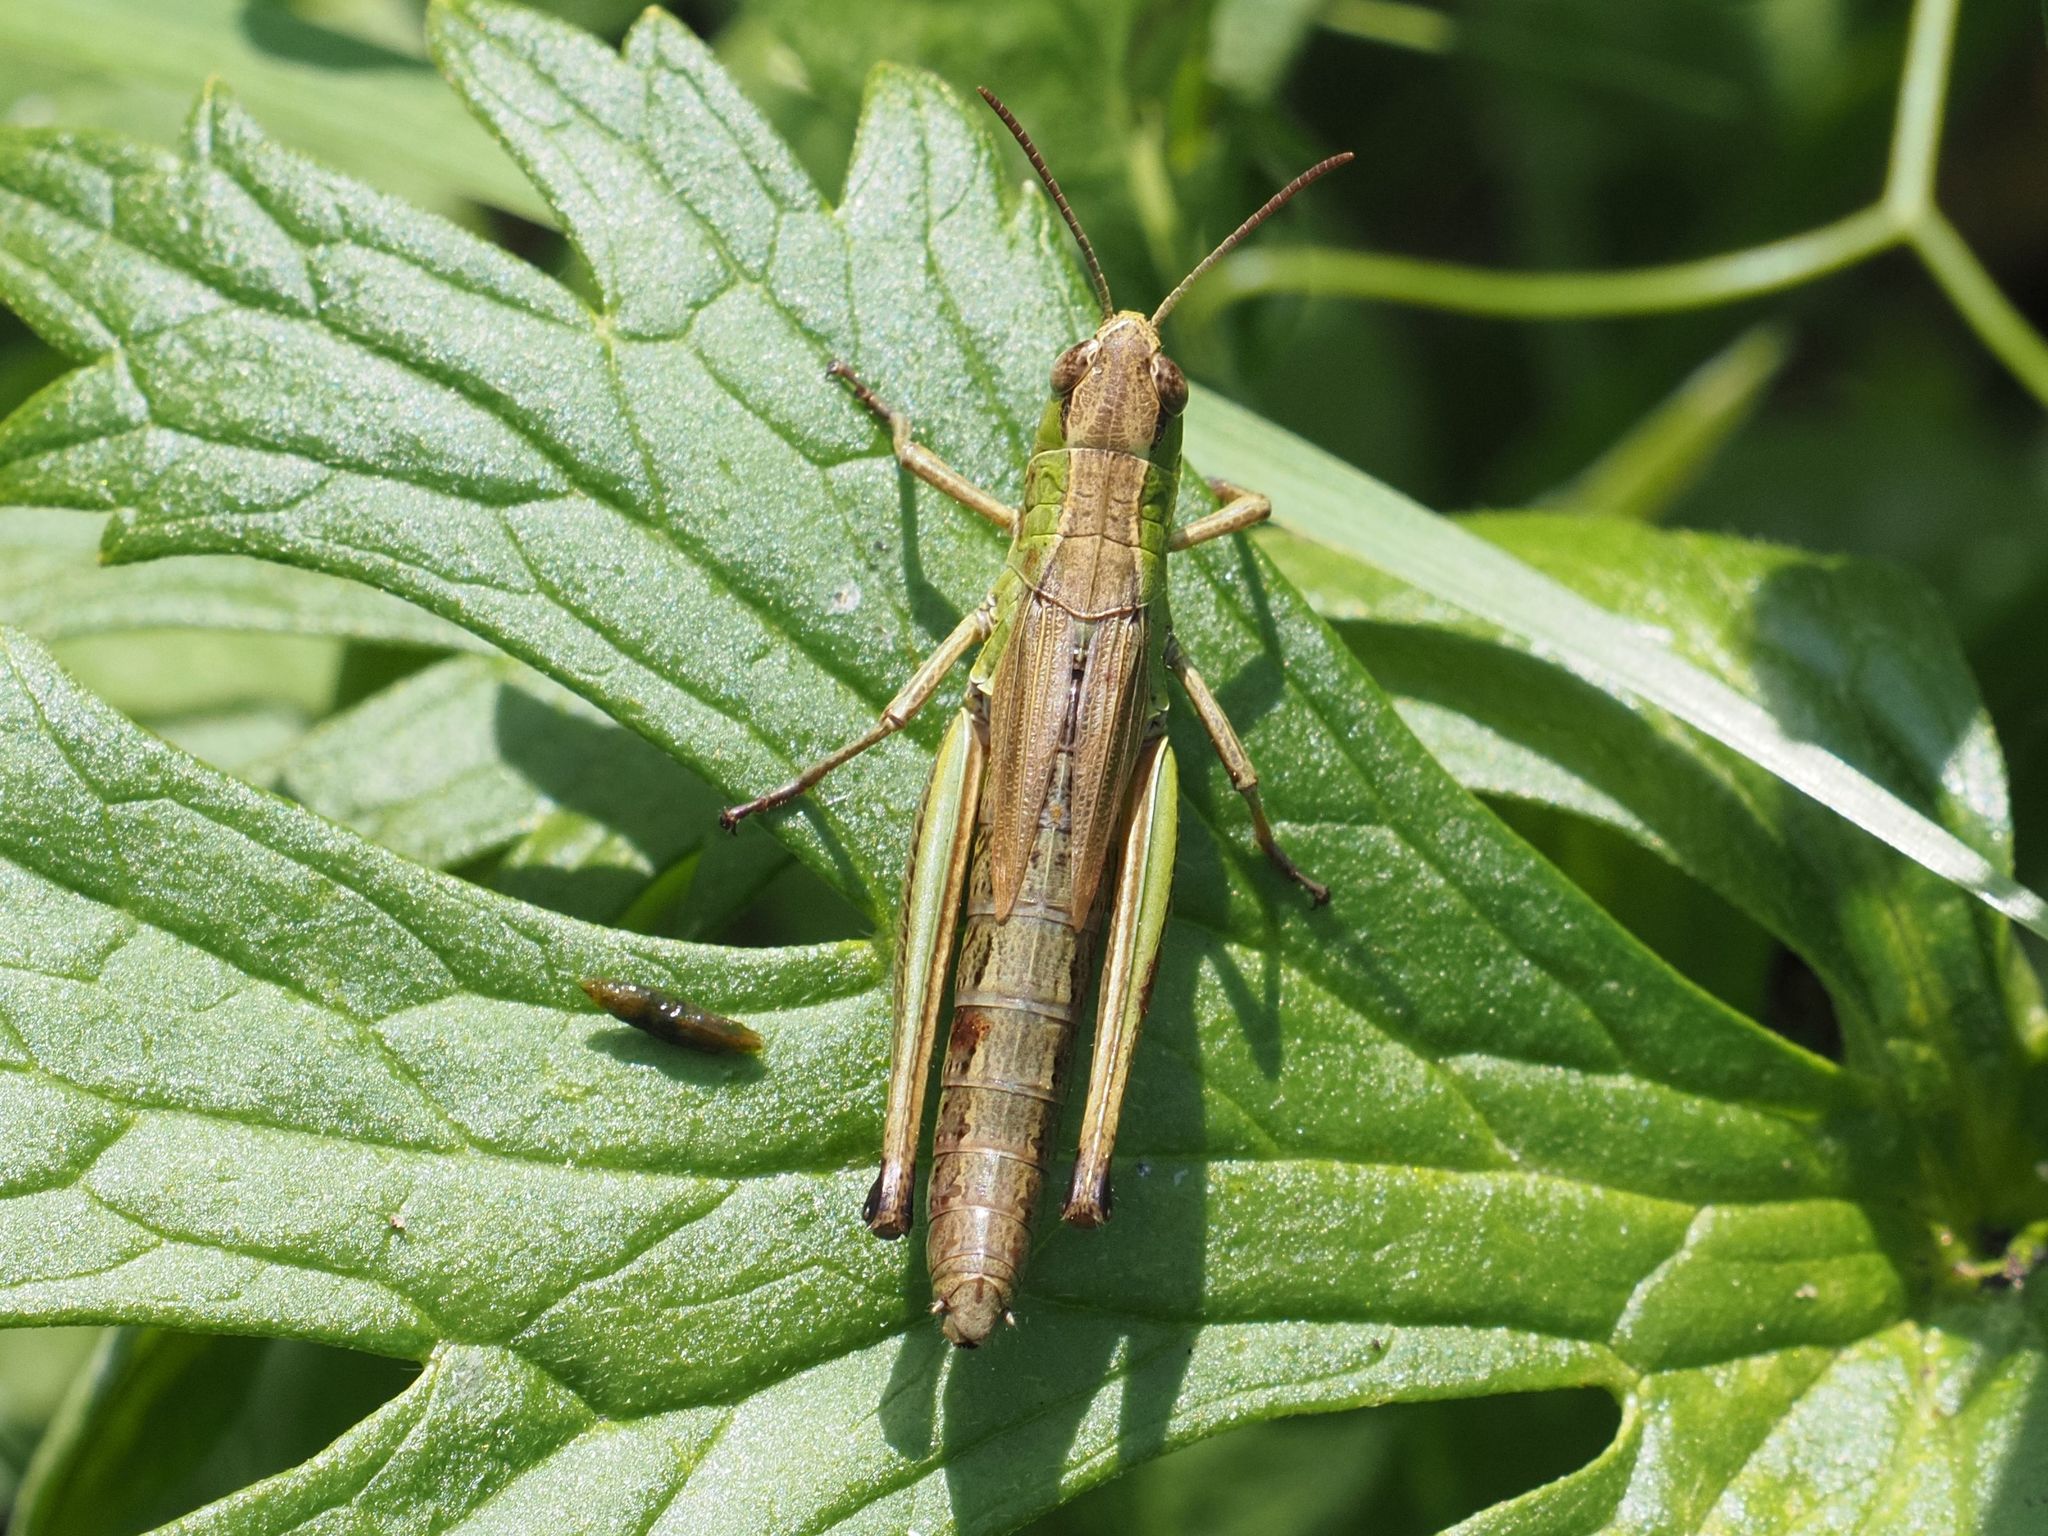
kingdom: Animalia
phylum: Arthropoda
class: Insecta
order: Orthoptera
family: Acrididae
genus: Pseudochorthippus
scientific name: Pseudochorthippus parallelus
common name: Meadow grasshopper
